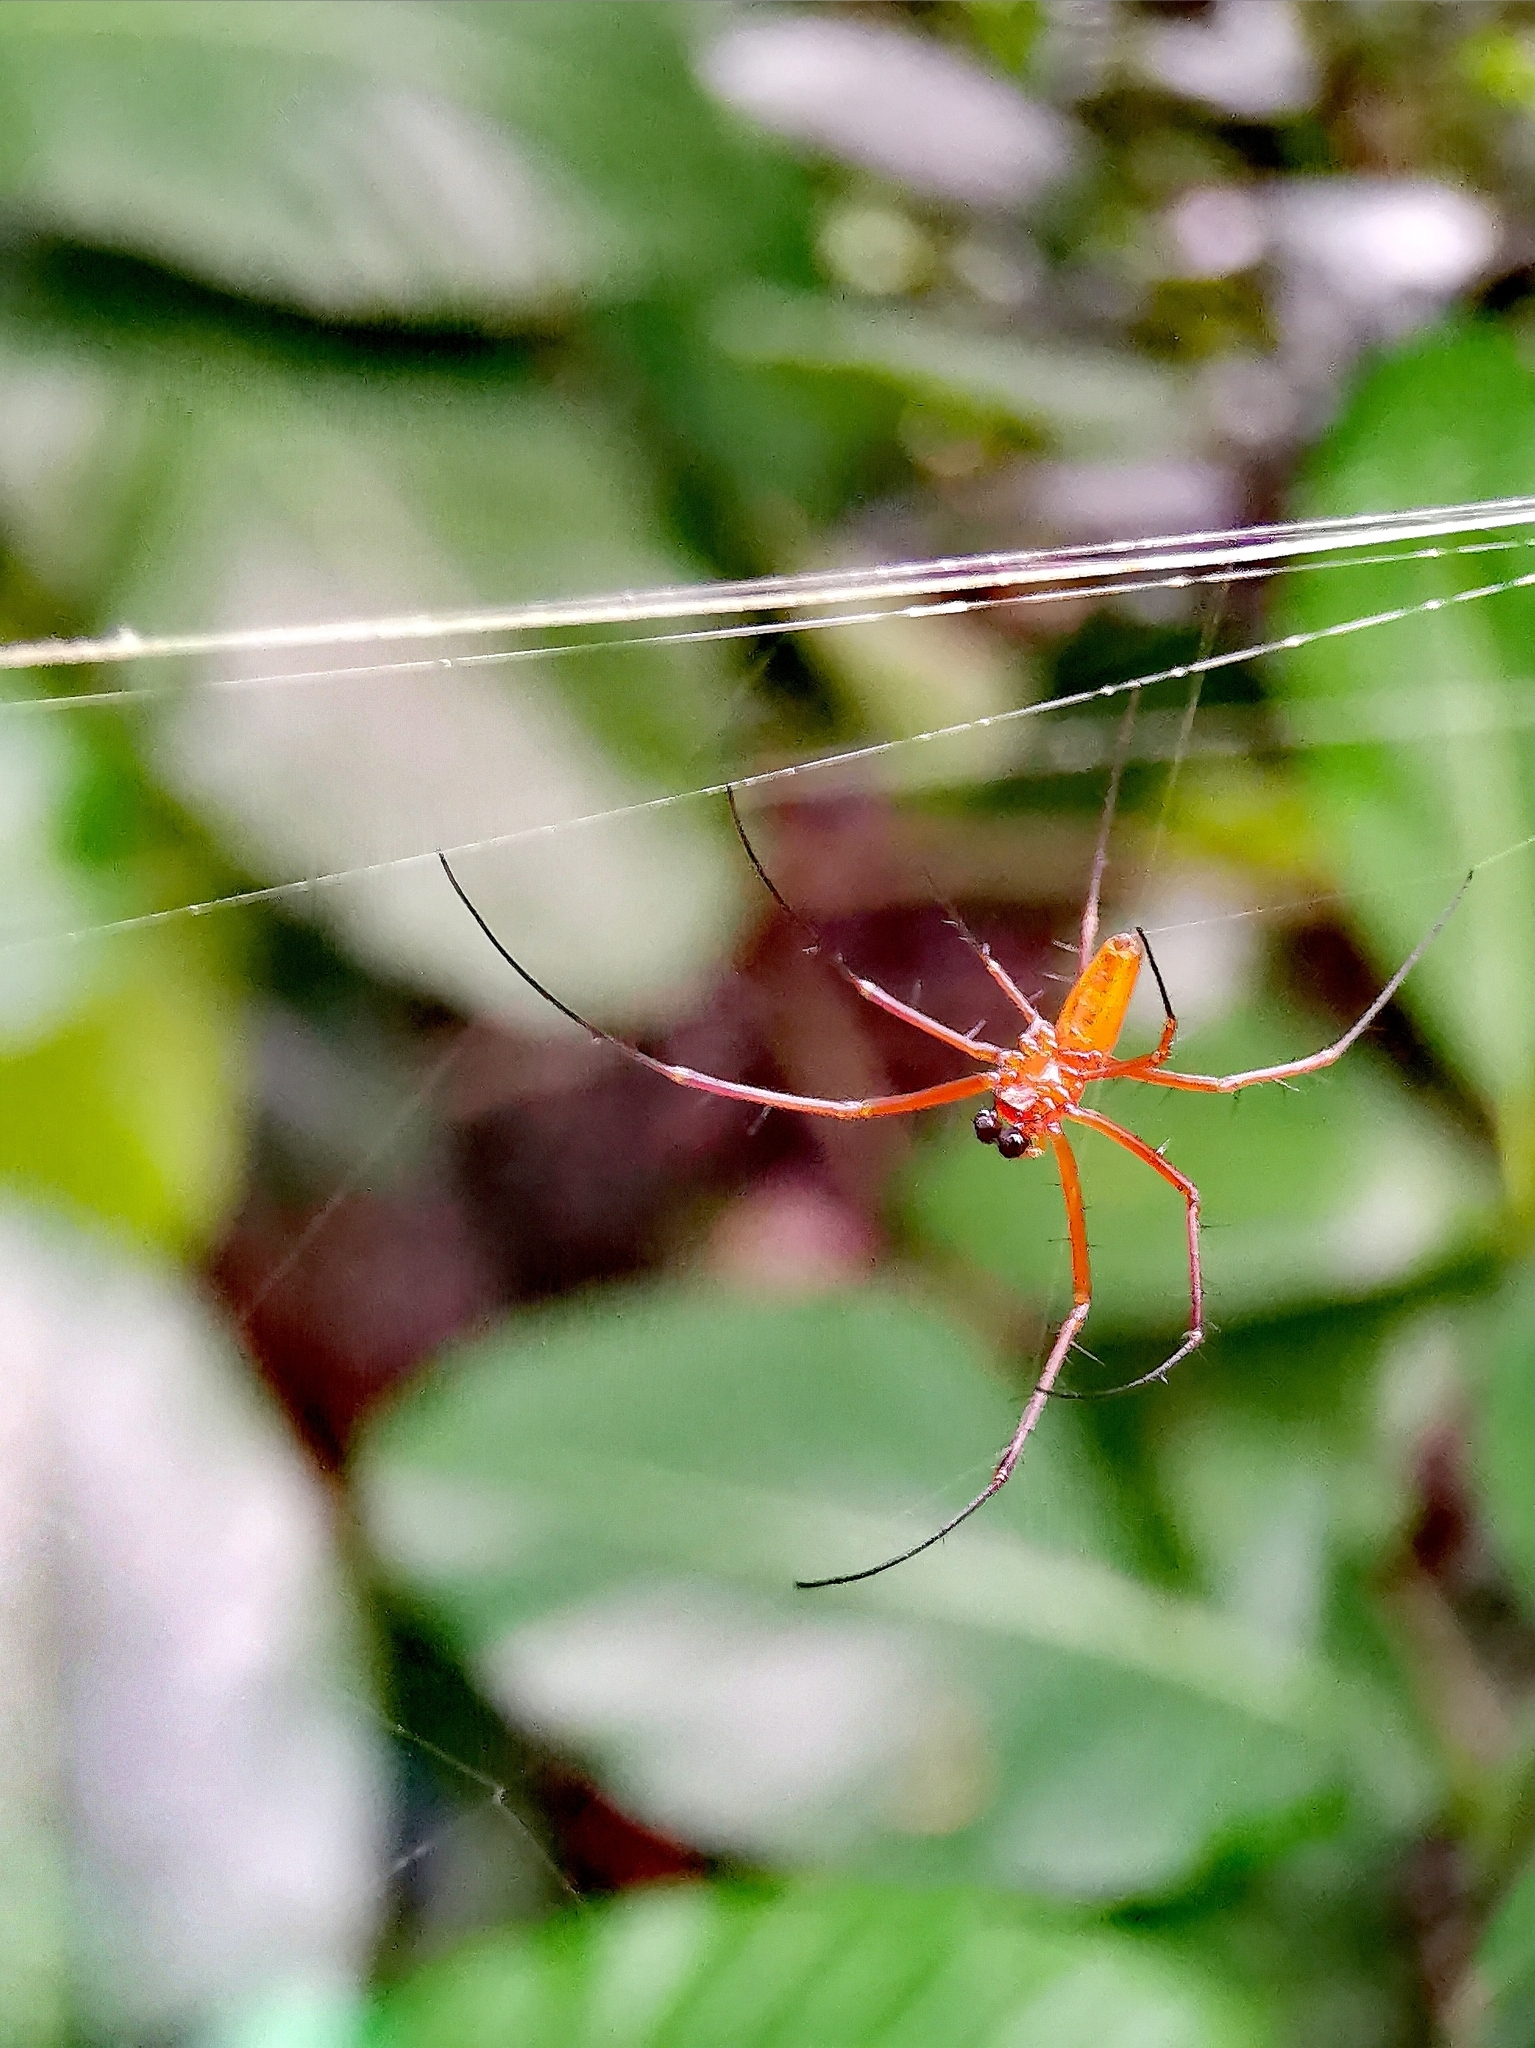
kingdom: Animalia
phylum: Arthropoda
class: Arachnida
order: Araneae
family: Araneidae
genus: Nephila
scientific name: Nephila pilipes
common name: Giant golden orb weaver
